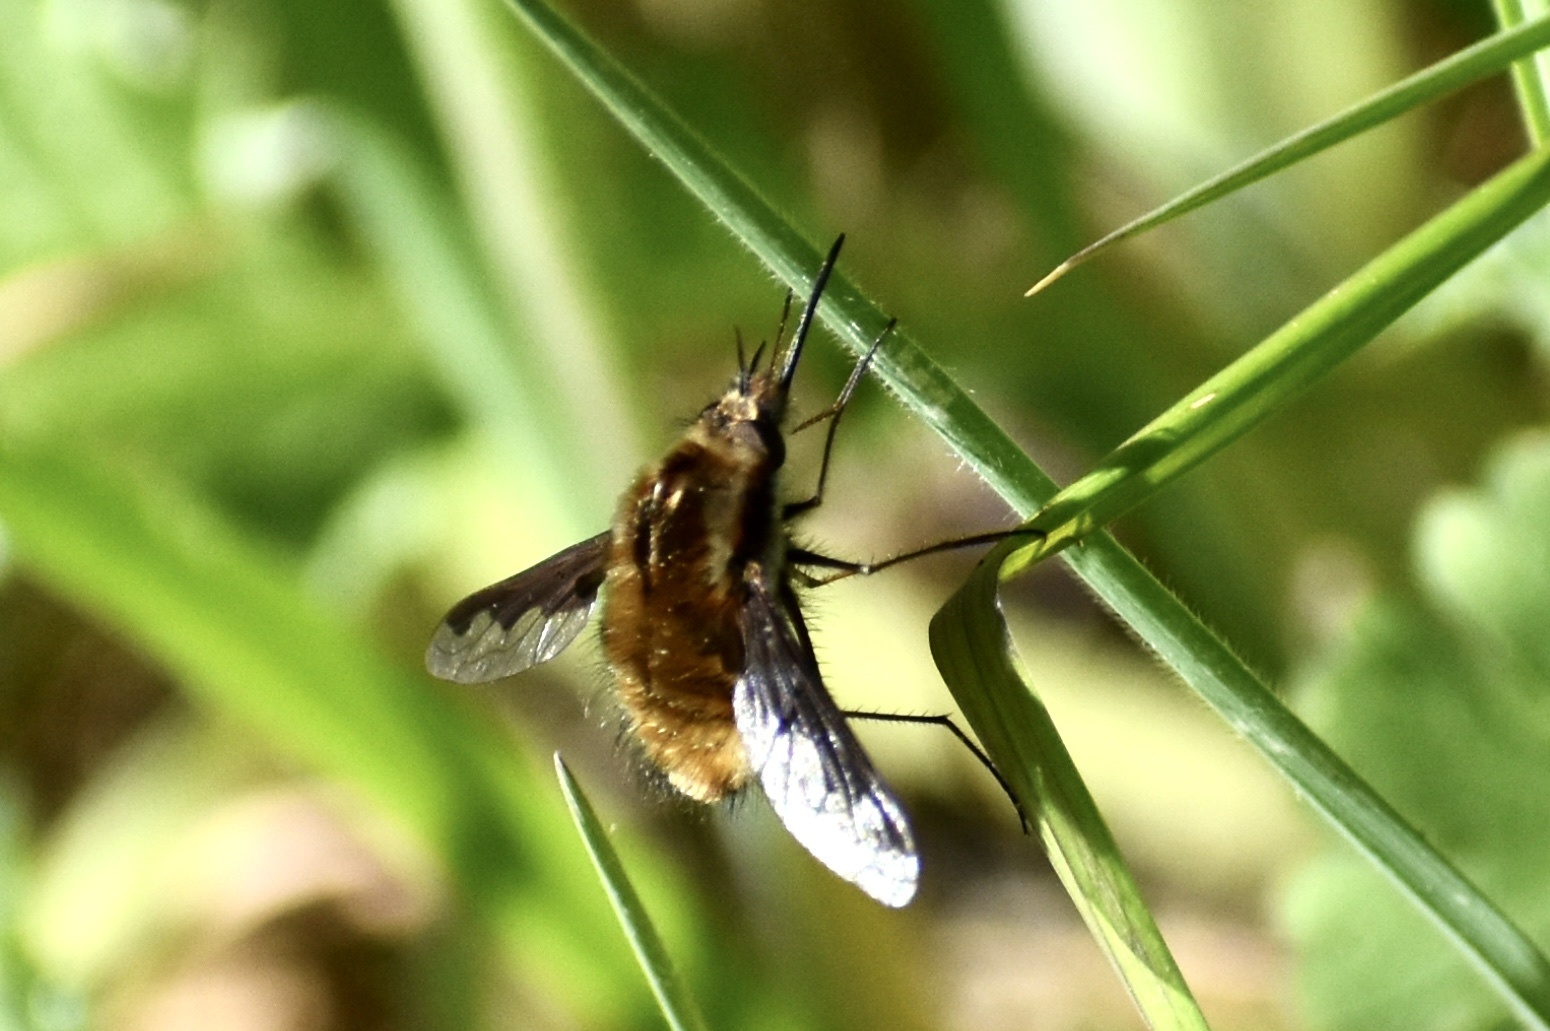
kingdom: Animalia
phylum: Arthropoda
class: Insecta
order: Diptera
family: Bombyliidae
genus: Bombylius
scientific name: Bombylius major
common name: Bee fly
